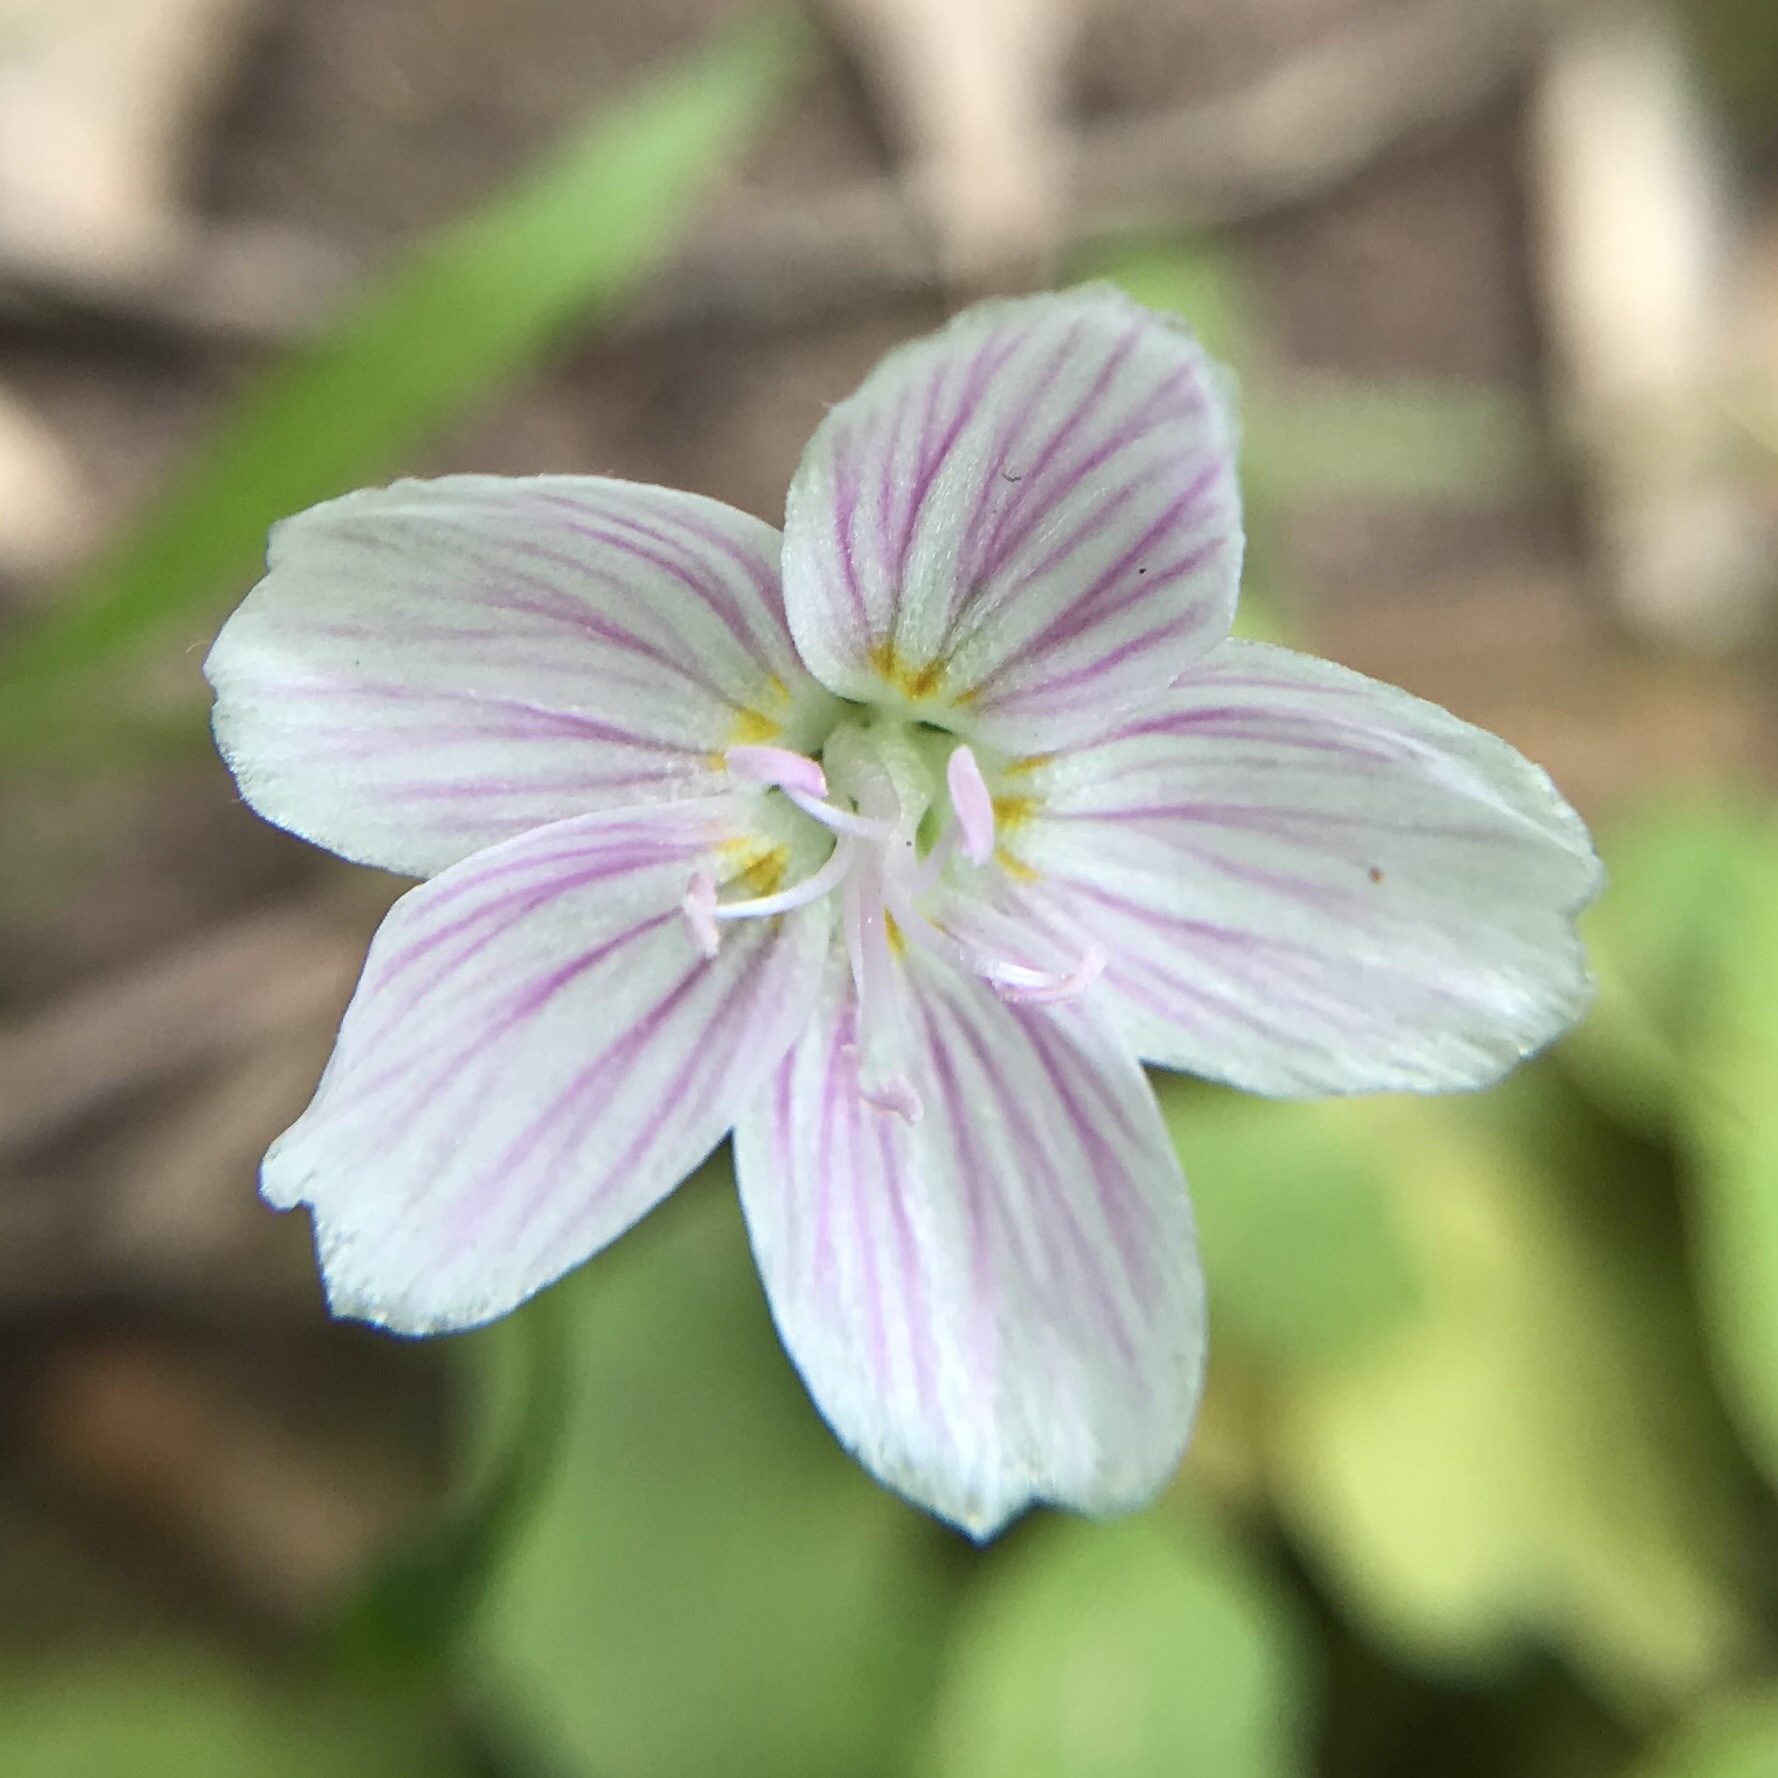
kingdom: Plantae
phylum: Tracheophyta
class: Magnoliopsida
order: Caryophyllales
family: Montiaceae
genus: Claytonia
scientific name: Claytonia virginica
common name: Virginia springbeauty
